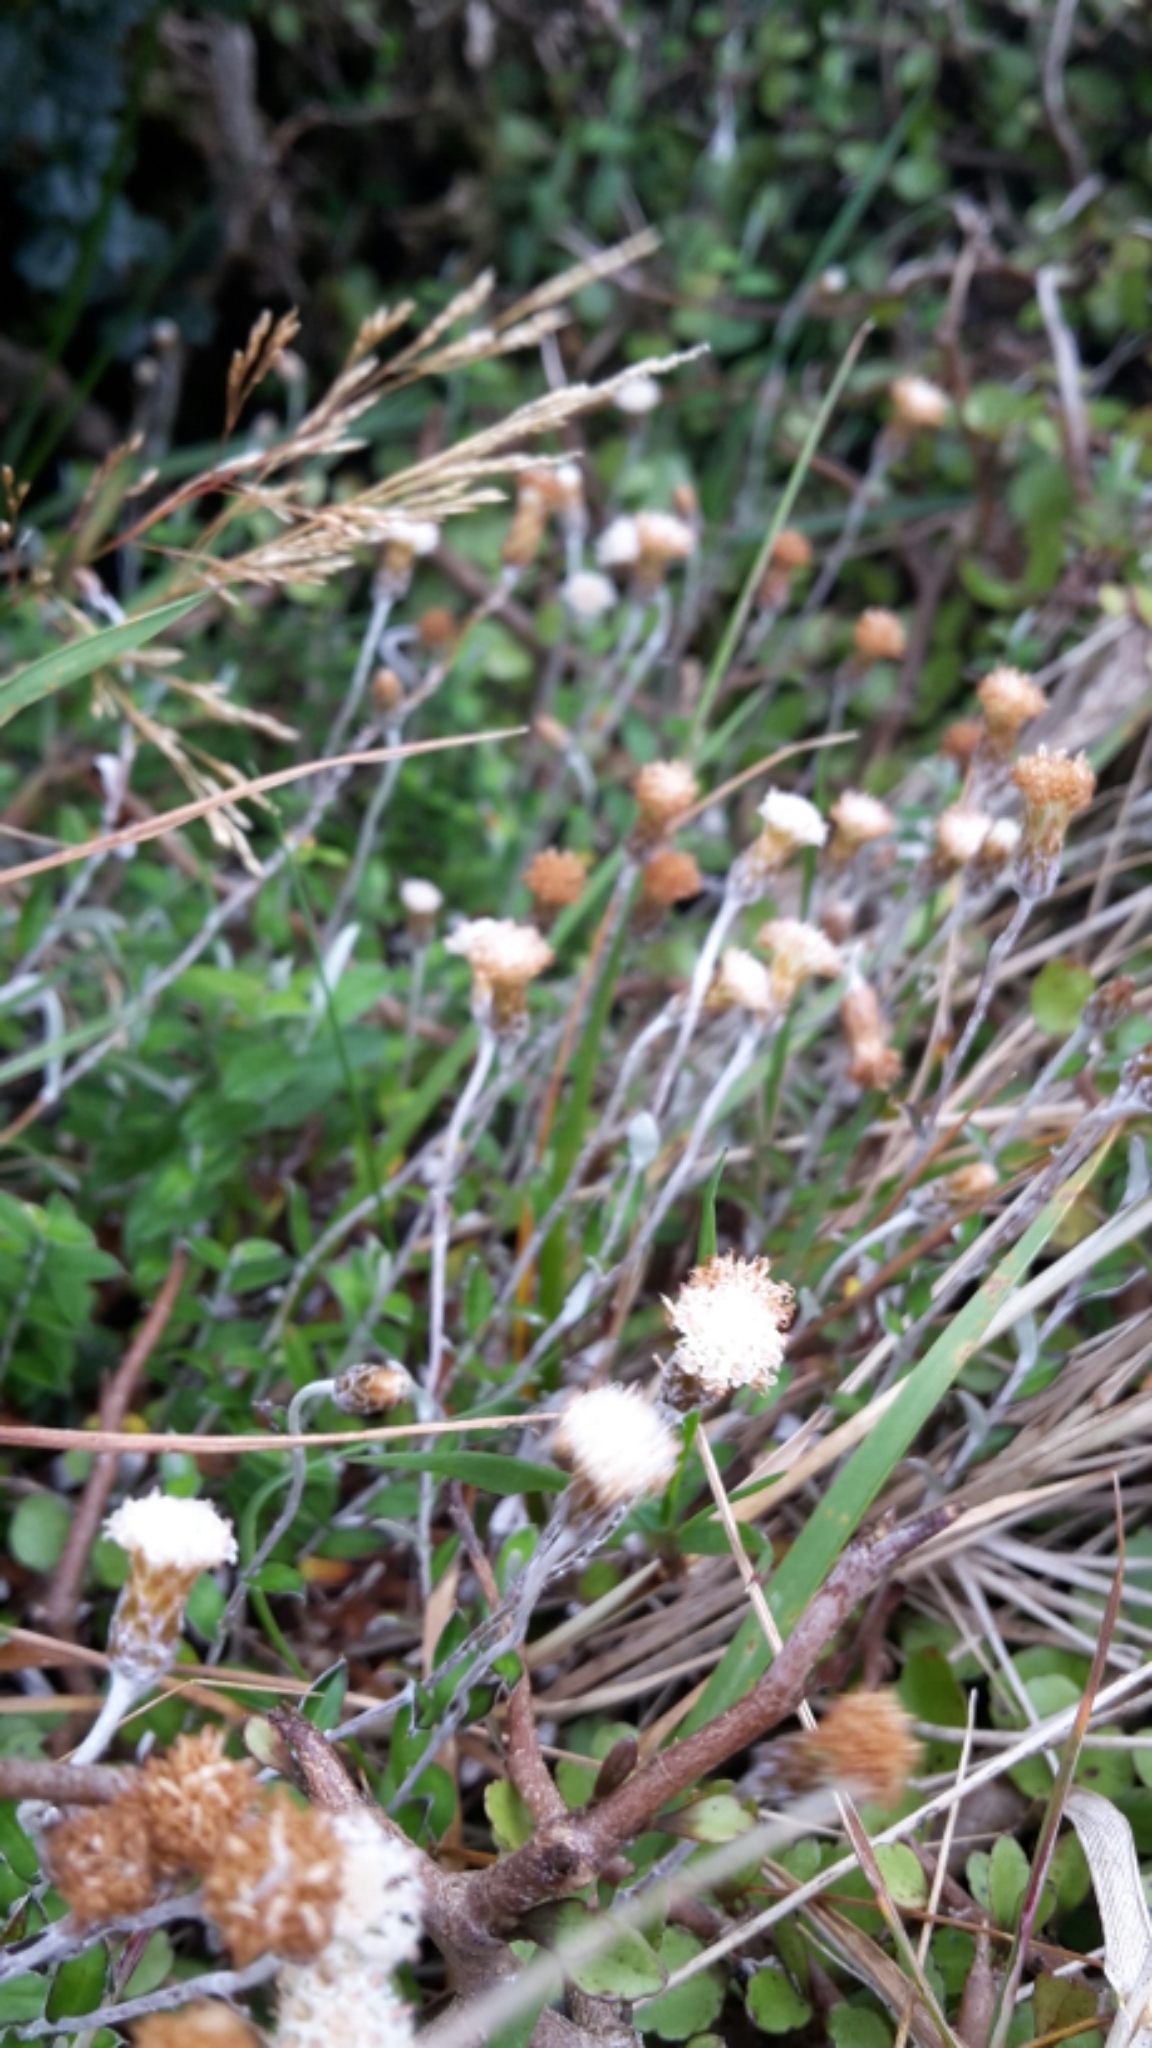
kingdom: Plantae
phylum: Tracheophyta
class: Magnoliopsida
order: Asterales
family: Asteraceae
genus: Helichrysum
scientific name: Helichrysum filicaule
